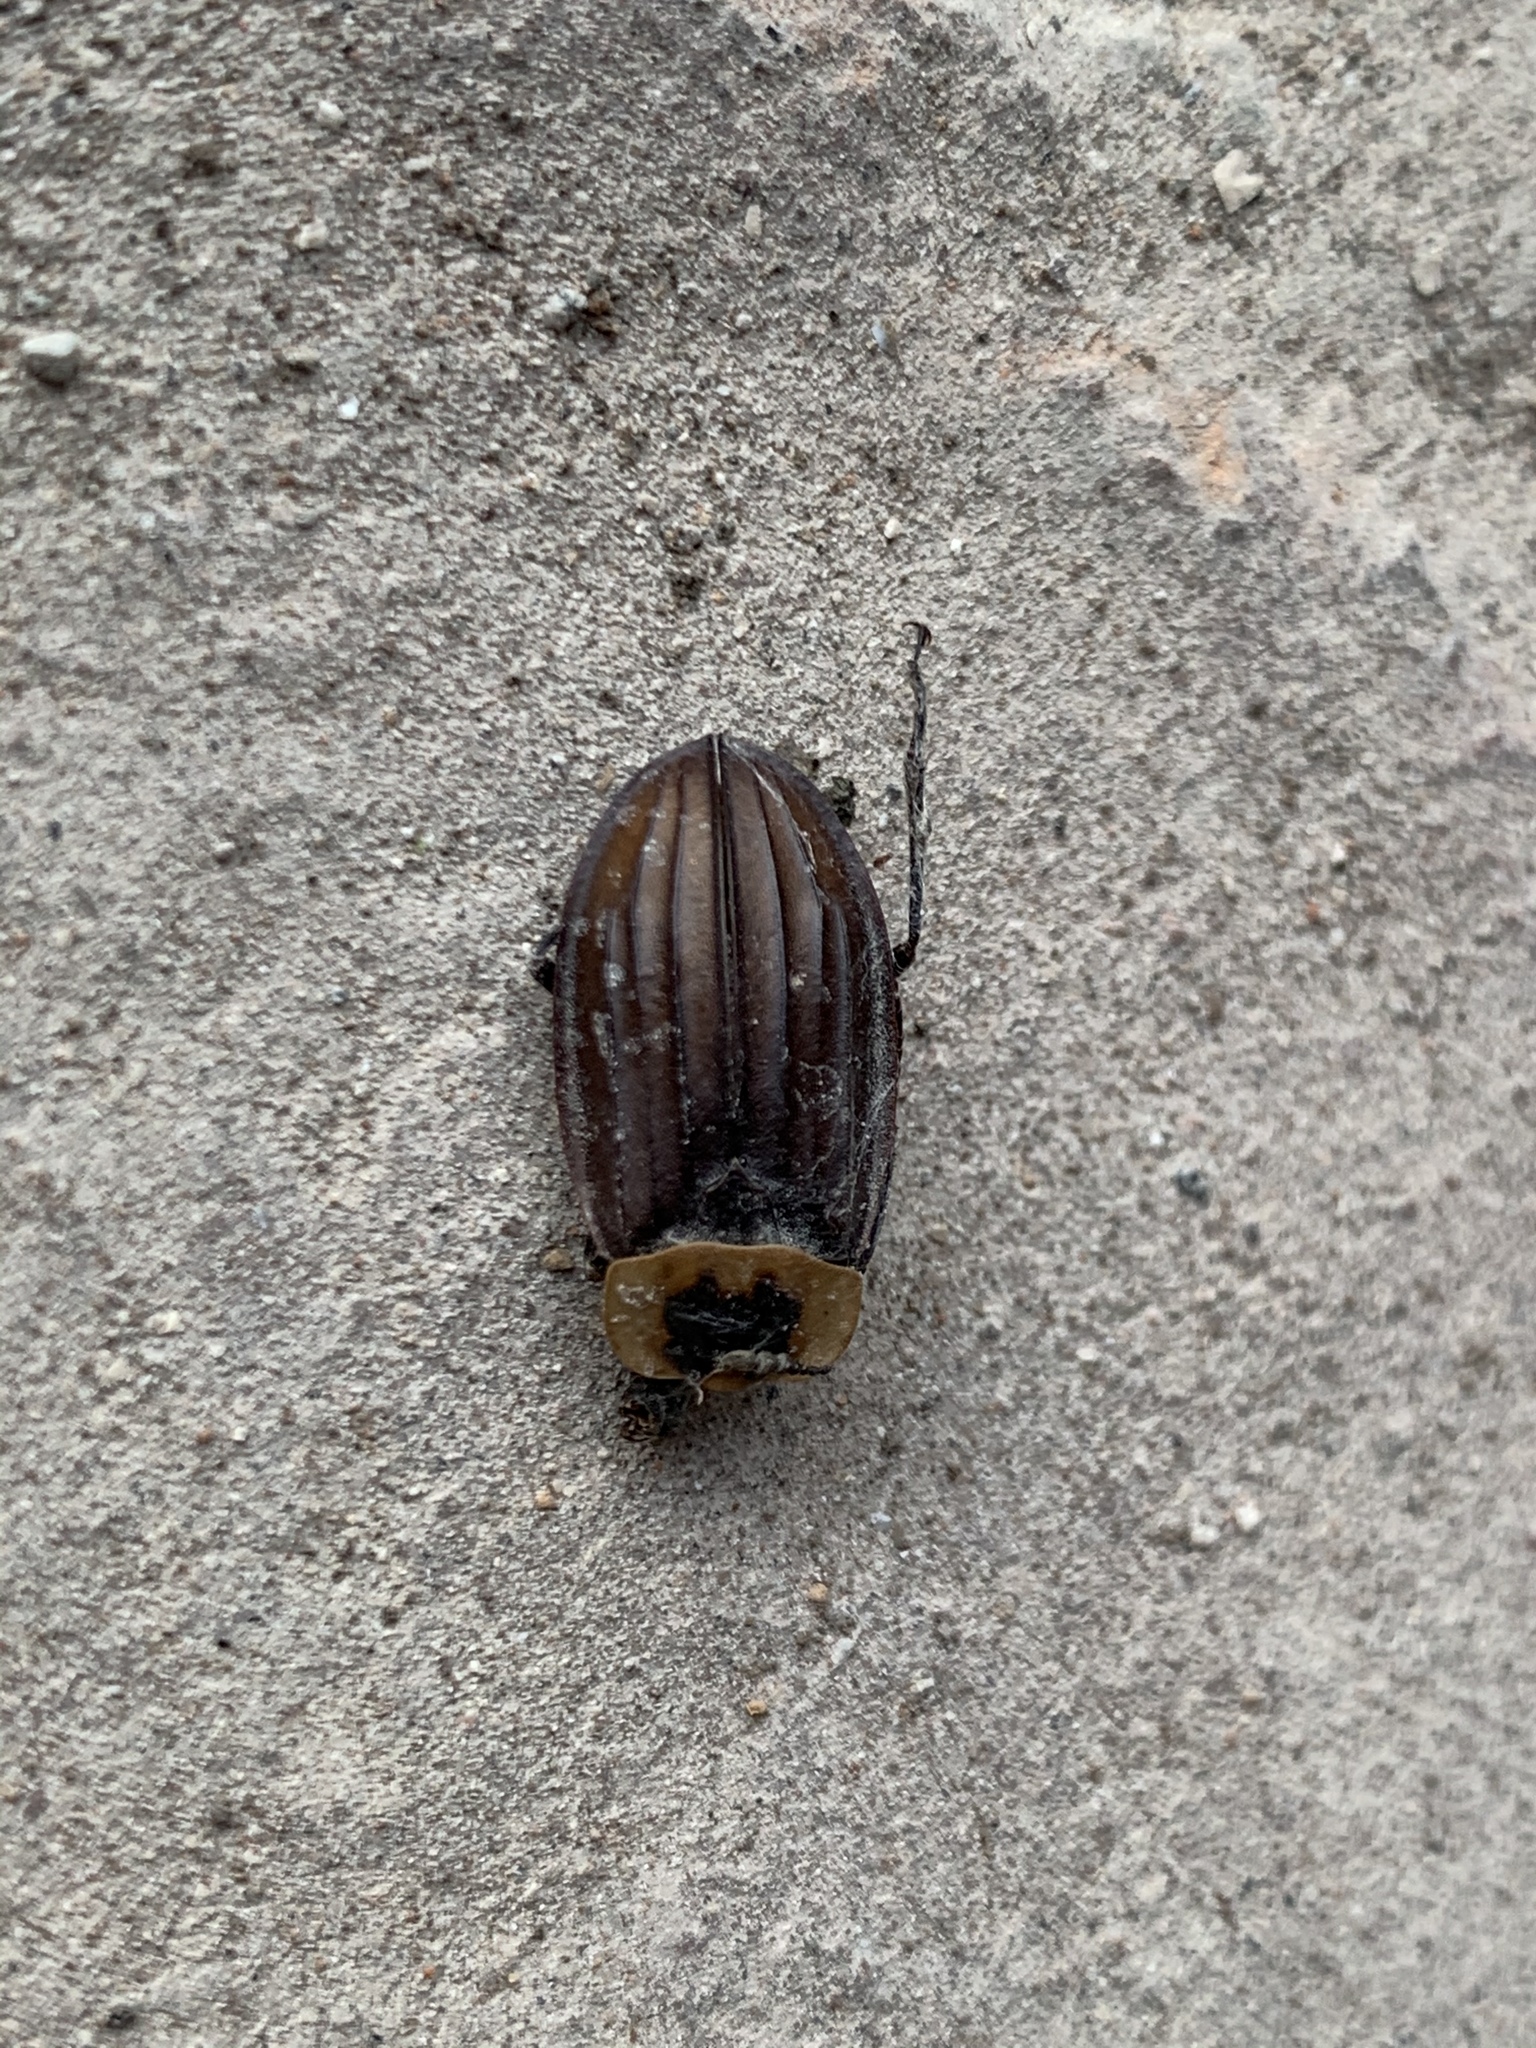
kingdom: Animalia
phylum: Arthropoda
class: Insecta
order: Coleoptera
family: Staphylinidae
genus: Oxelytrum
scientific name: Oxelytrum discicolle
